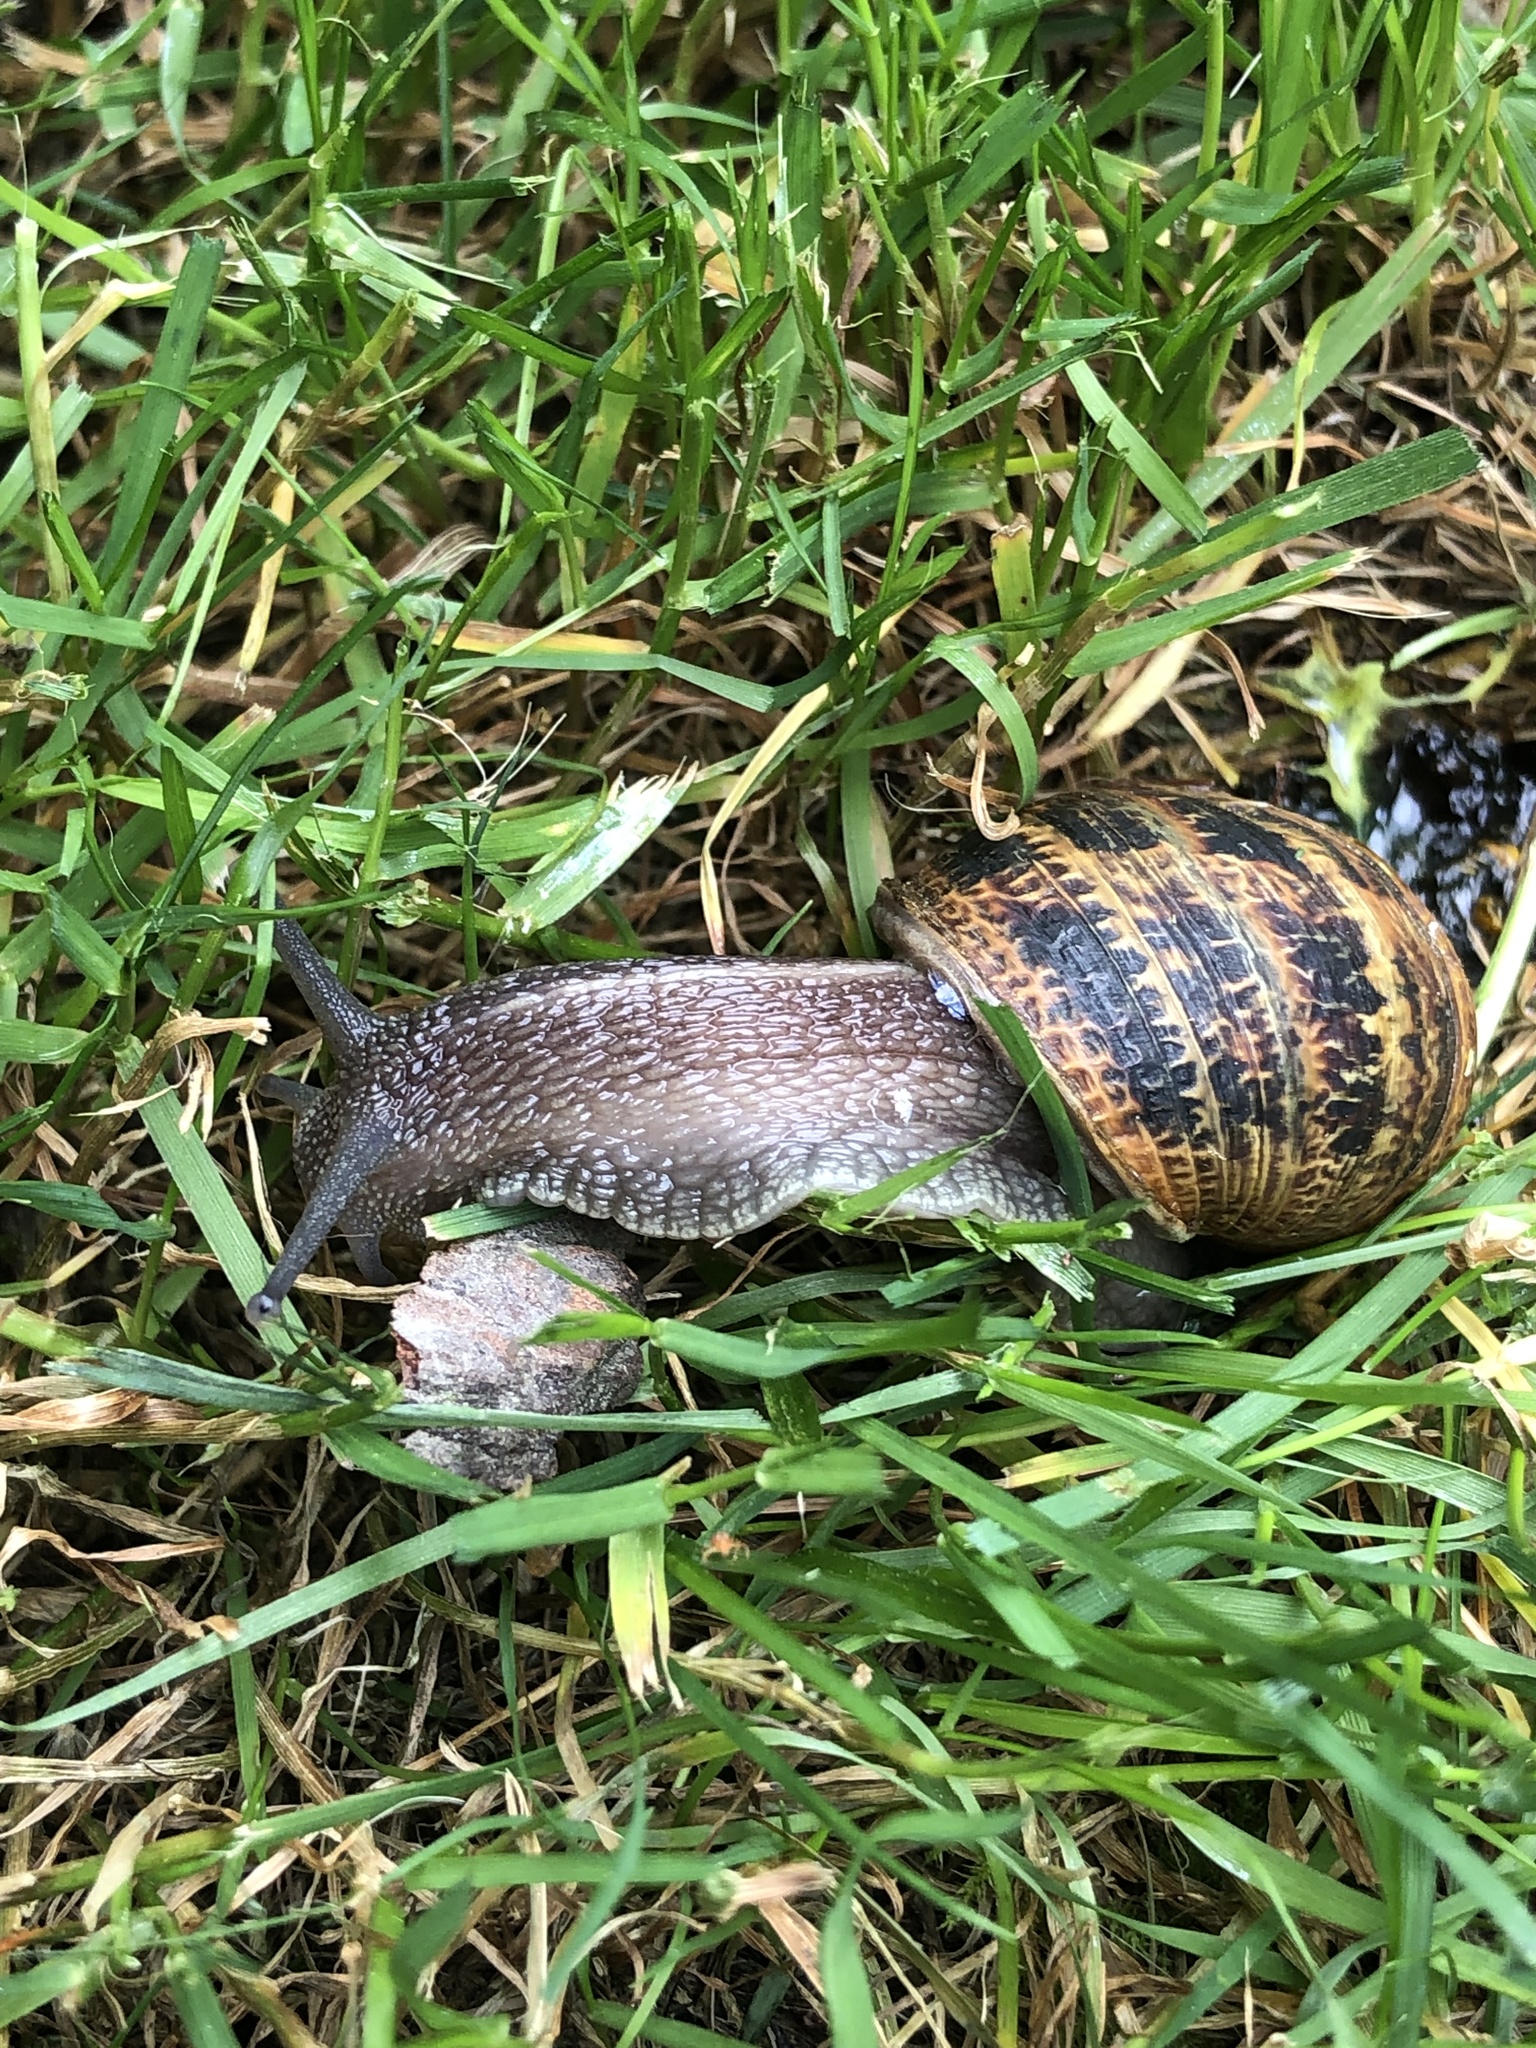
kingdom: Animalia
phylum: Mollusca
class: Gastropoda
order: Stylommatophora
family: Helicidae
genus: Cornu
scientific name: Cornu aspersum
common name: Brown garden snail
